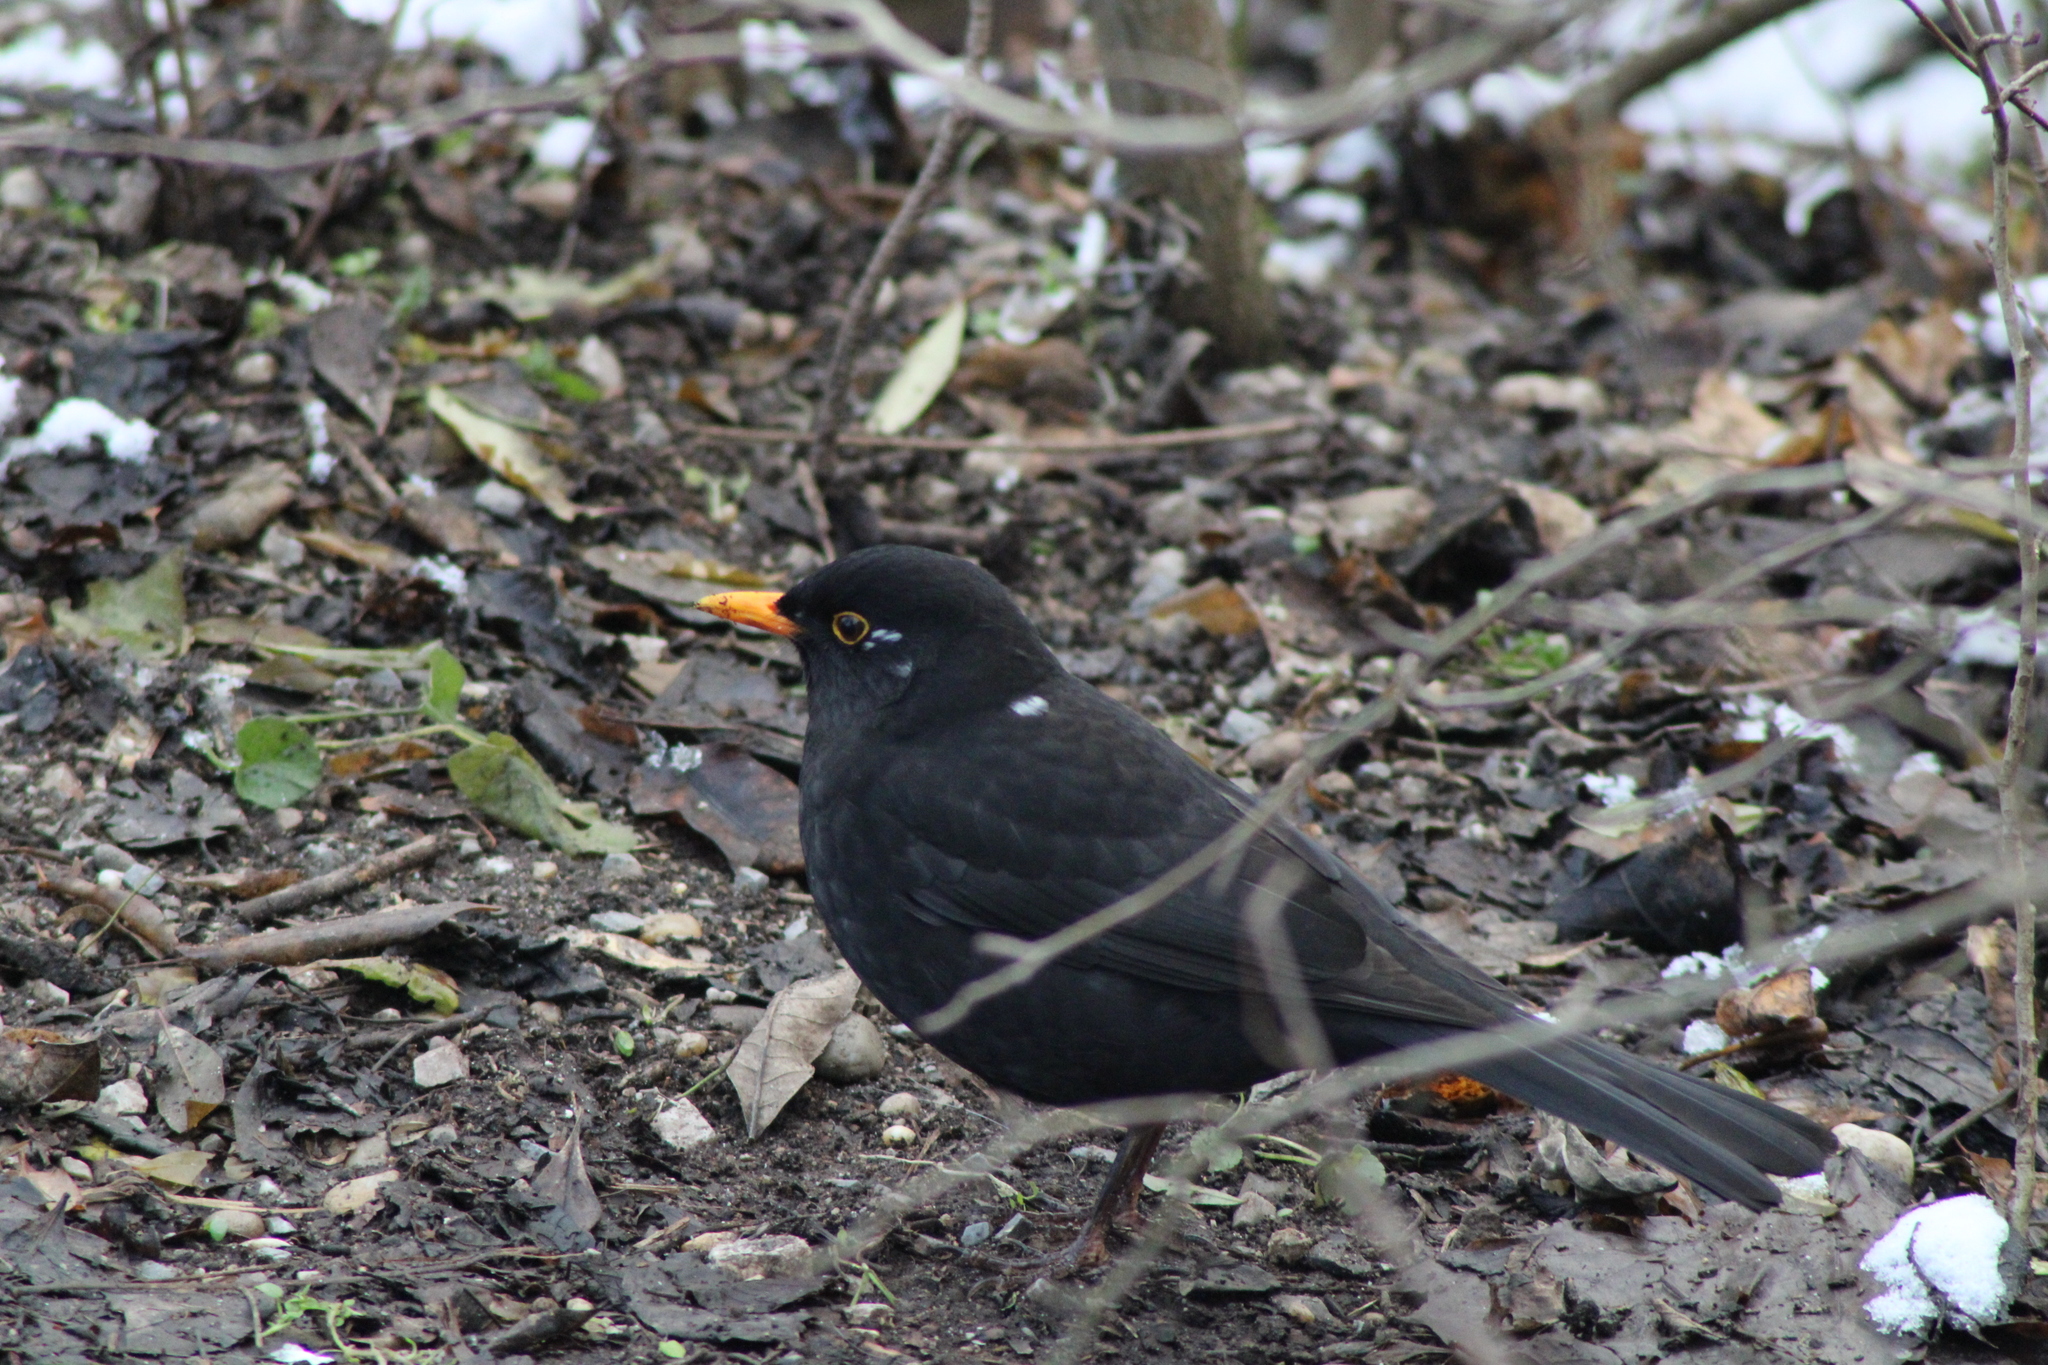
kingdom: Animalia
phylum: Chordata
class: Aves
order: Passeriformes
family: Turdidae
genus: Turdus
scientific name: Turdus merula
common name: Common blackbird
